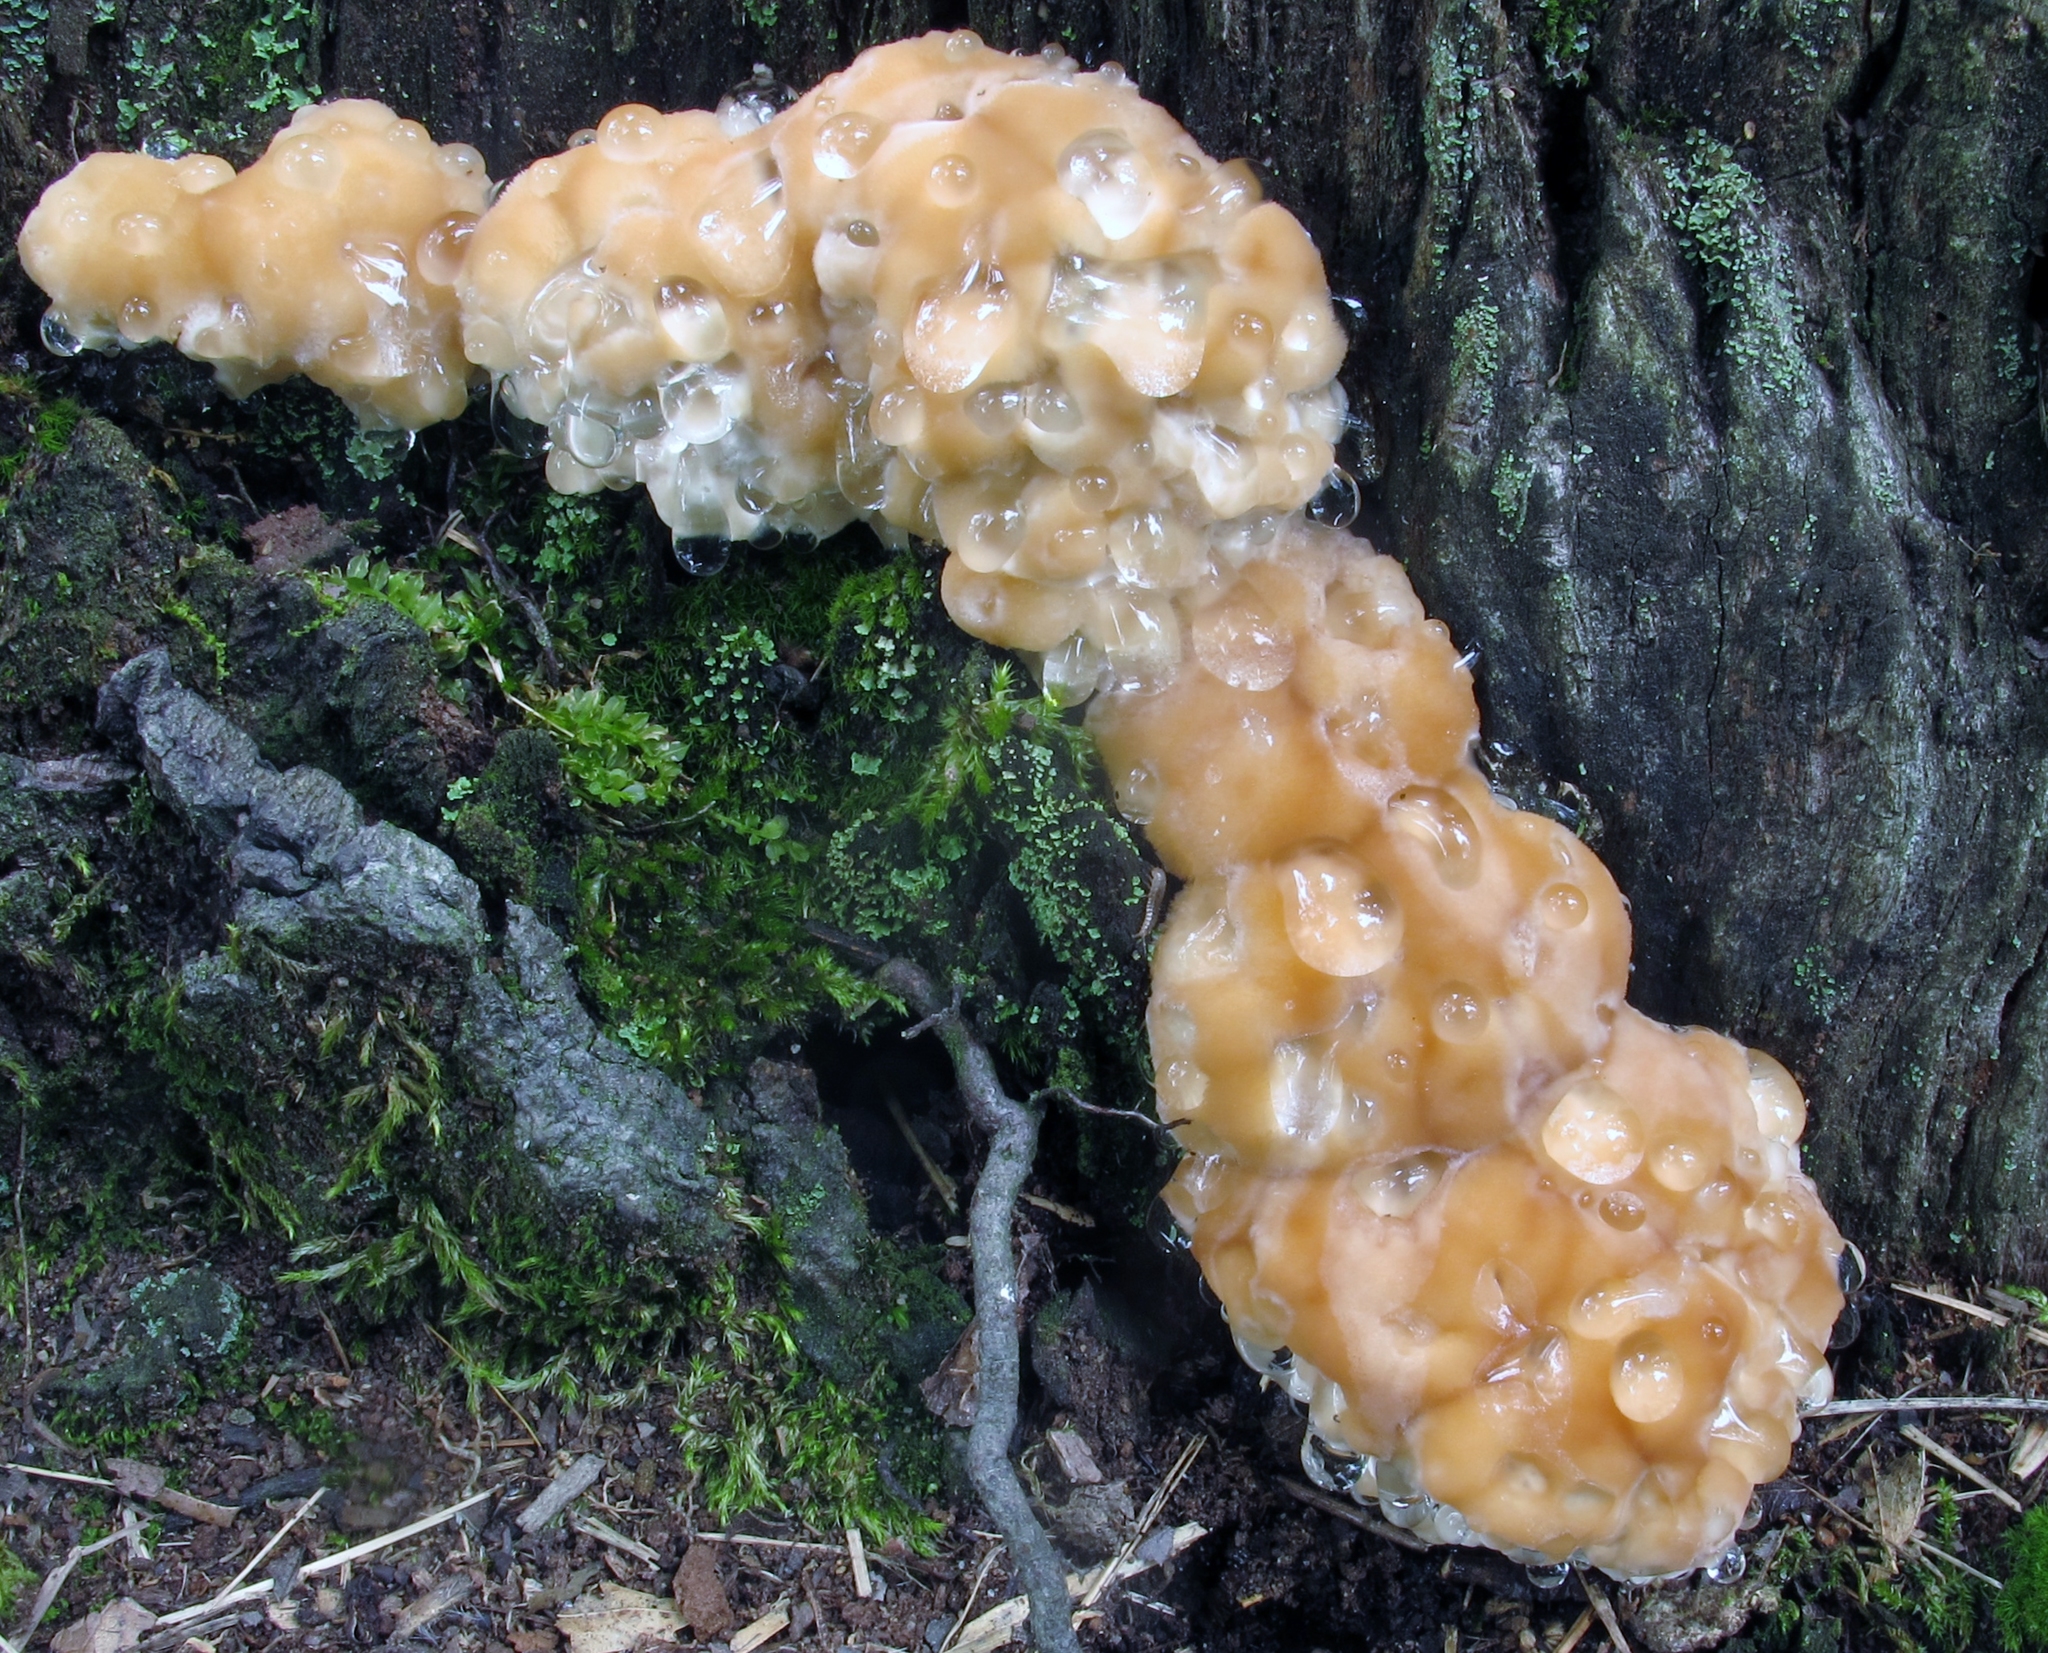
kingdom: Fungi
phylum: Basidiomycota
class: Agaricomycetes
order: Polyporales
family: Fomitopsidaceae
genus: Niveoporofomes
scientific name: Niveoporofomes spraguei
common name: Green cheese polypore
